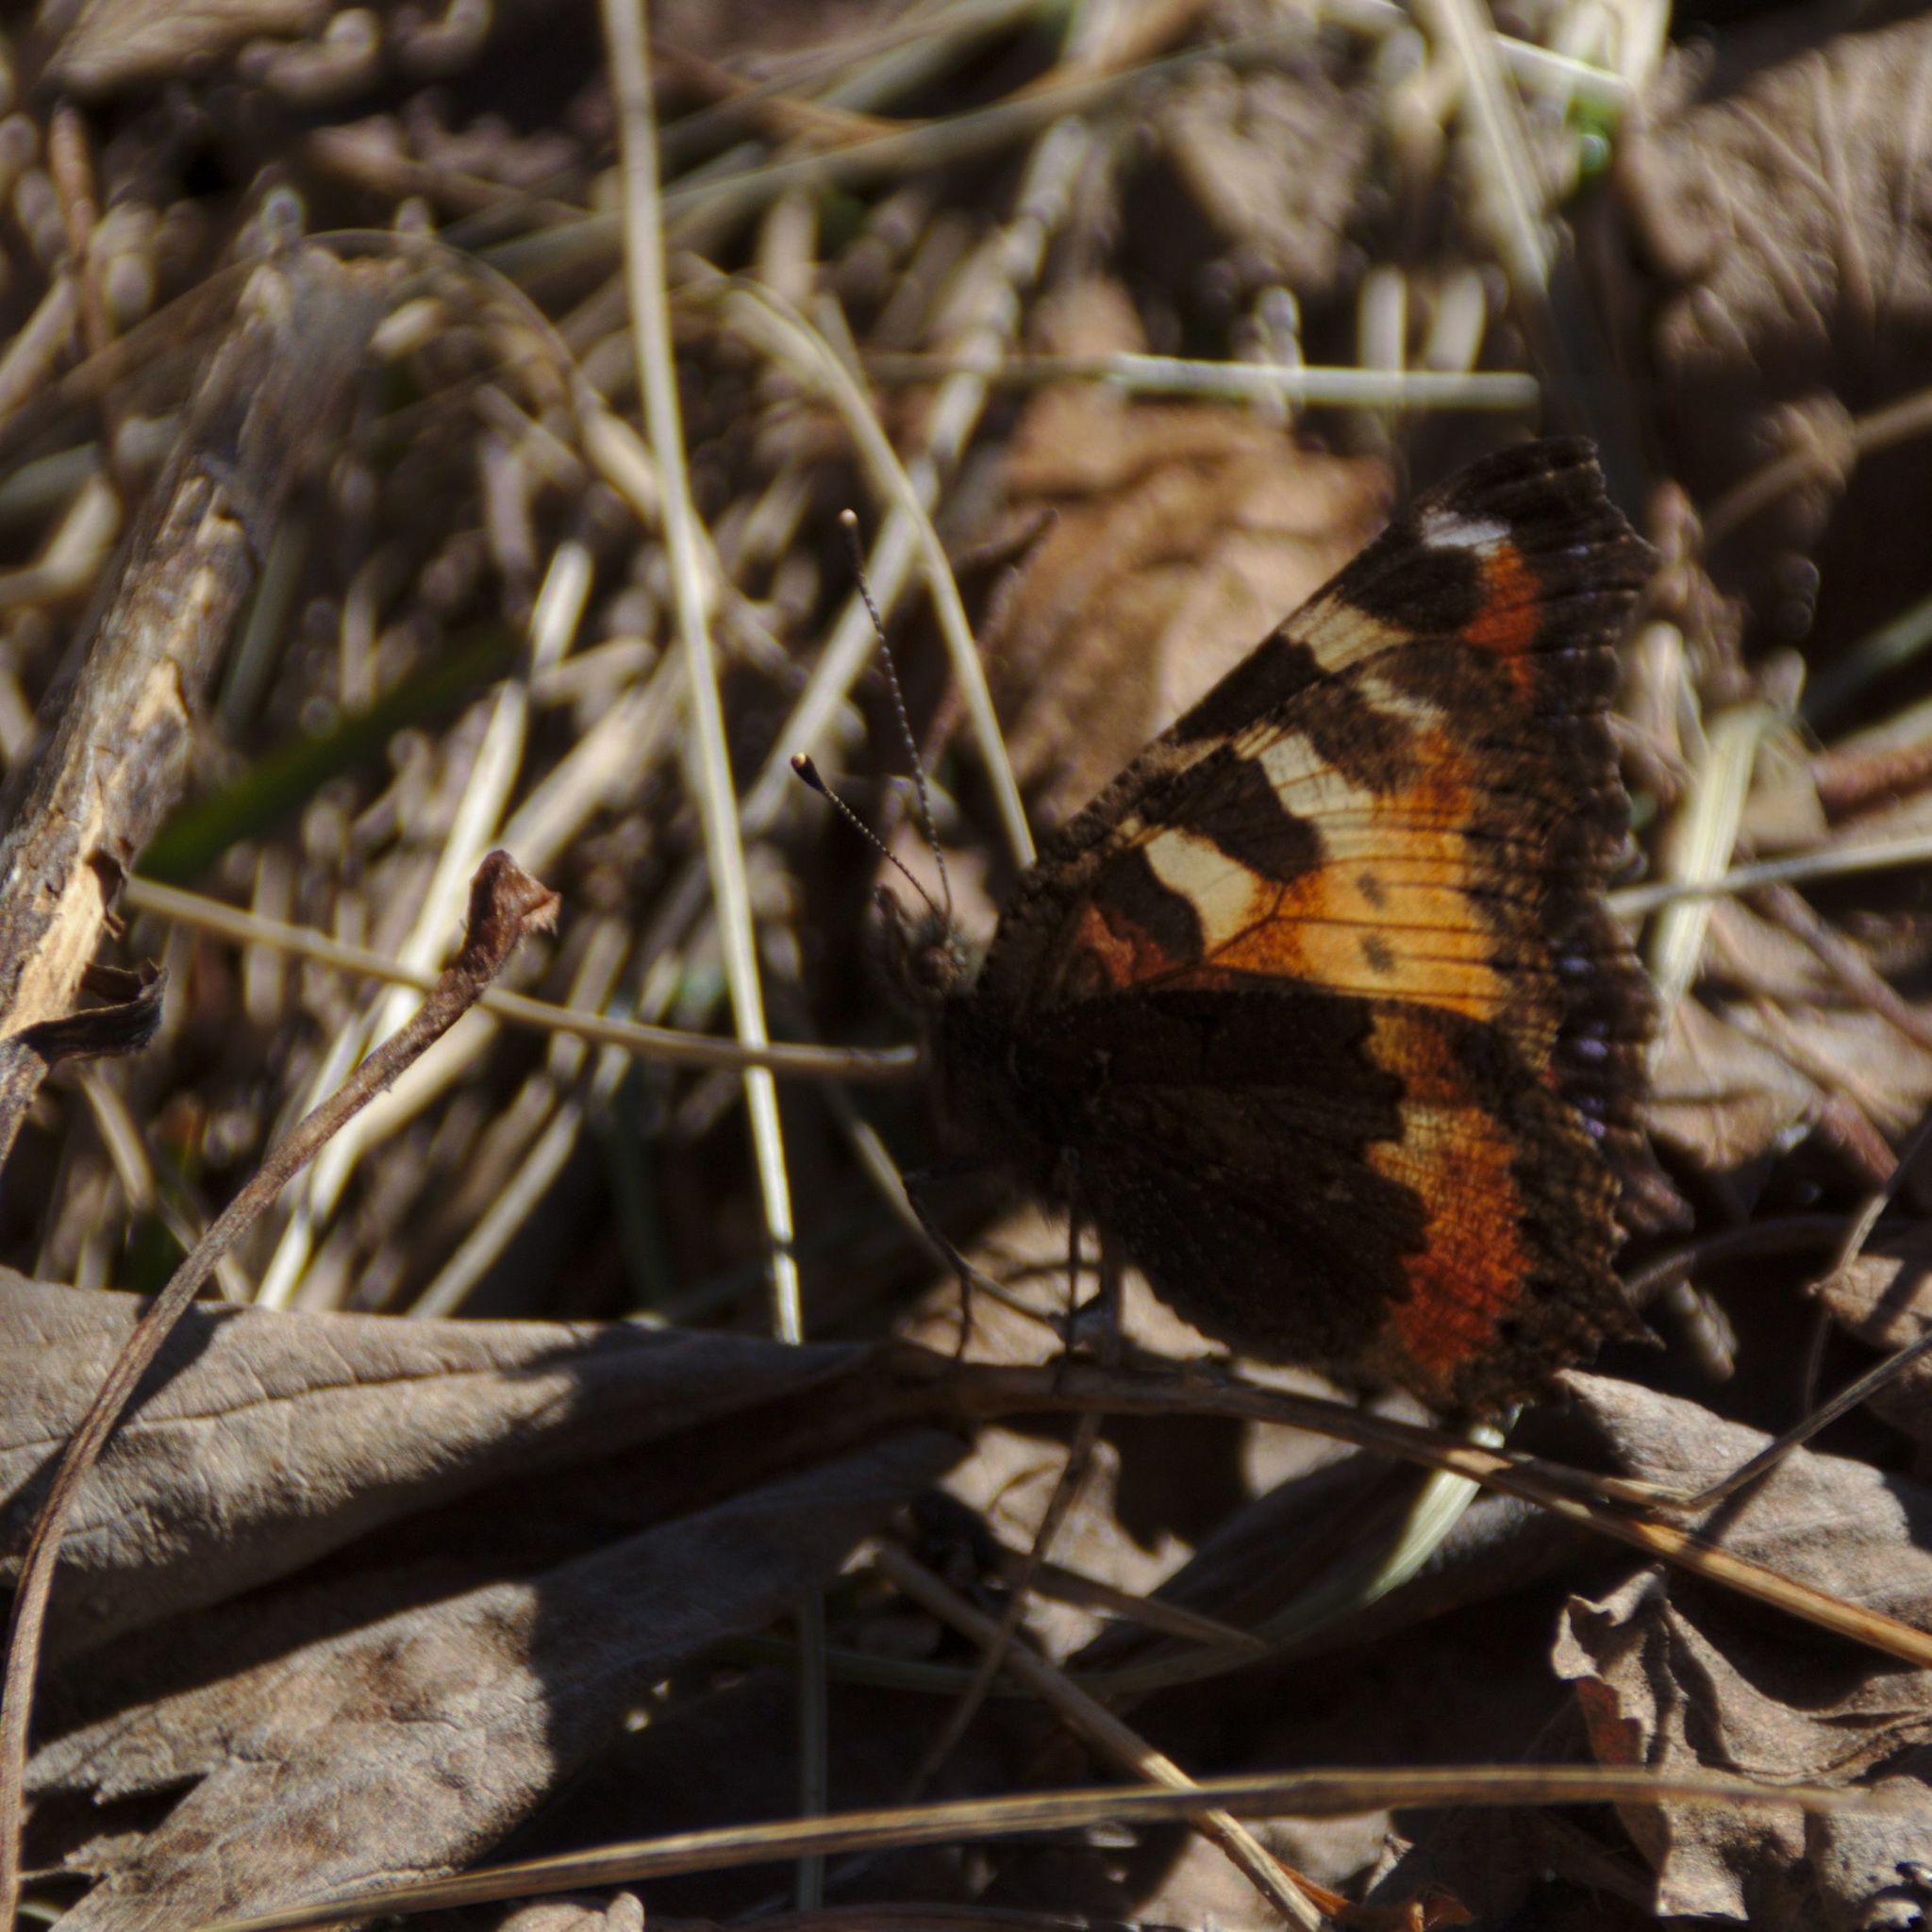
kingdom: Animalia
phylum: Arthropoda
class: Insecta
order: Lepidoptera
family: Nymphalidae
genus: Aglais
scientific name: Aglais urticae
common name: Small tortoiseshell
